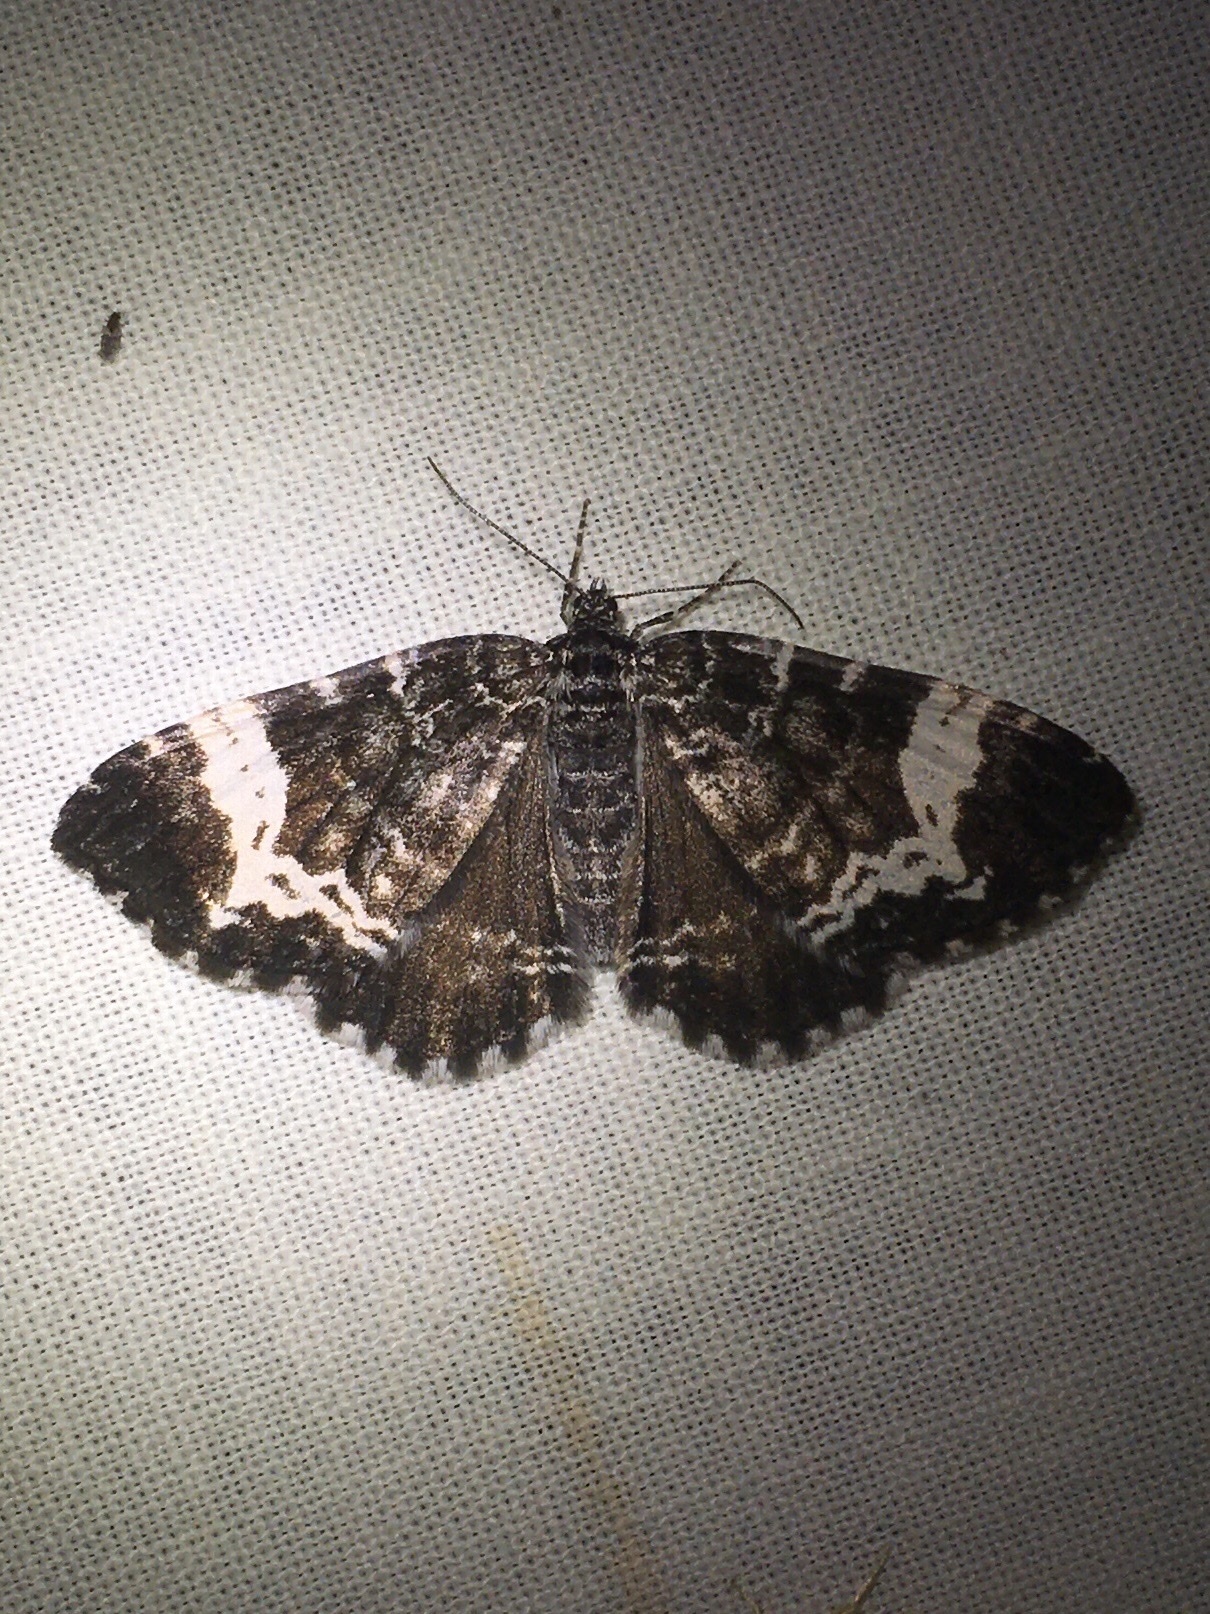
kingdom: Animalia
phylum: Arthropoda
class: Insecta
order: Lepidoptera
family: Geometridae
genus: Rheumaptera
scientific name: Rheumaptera
